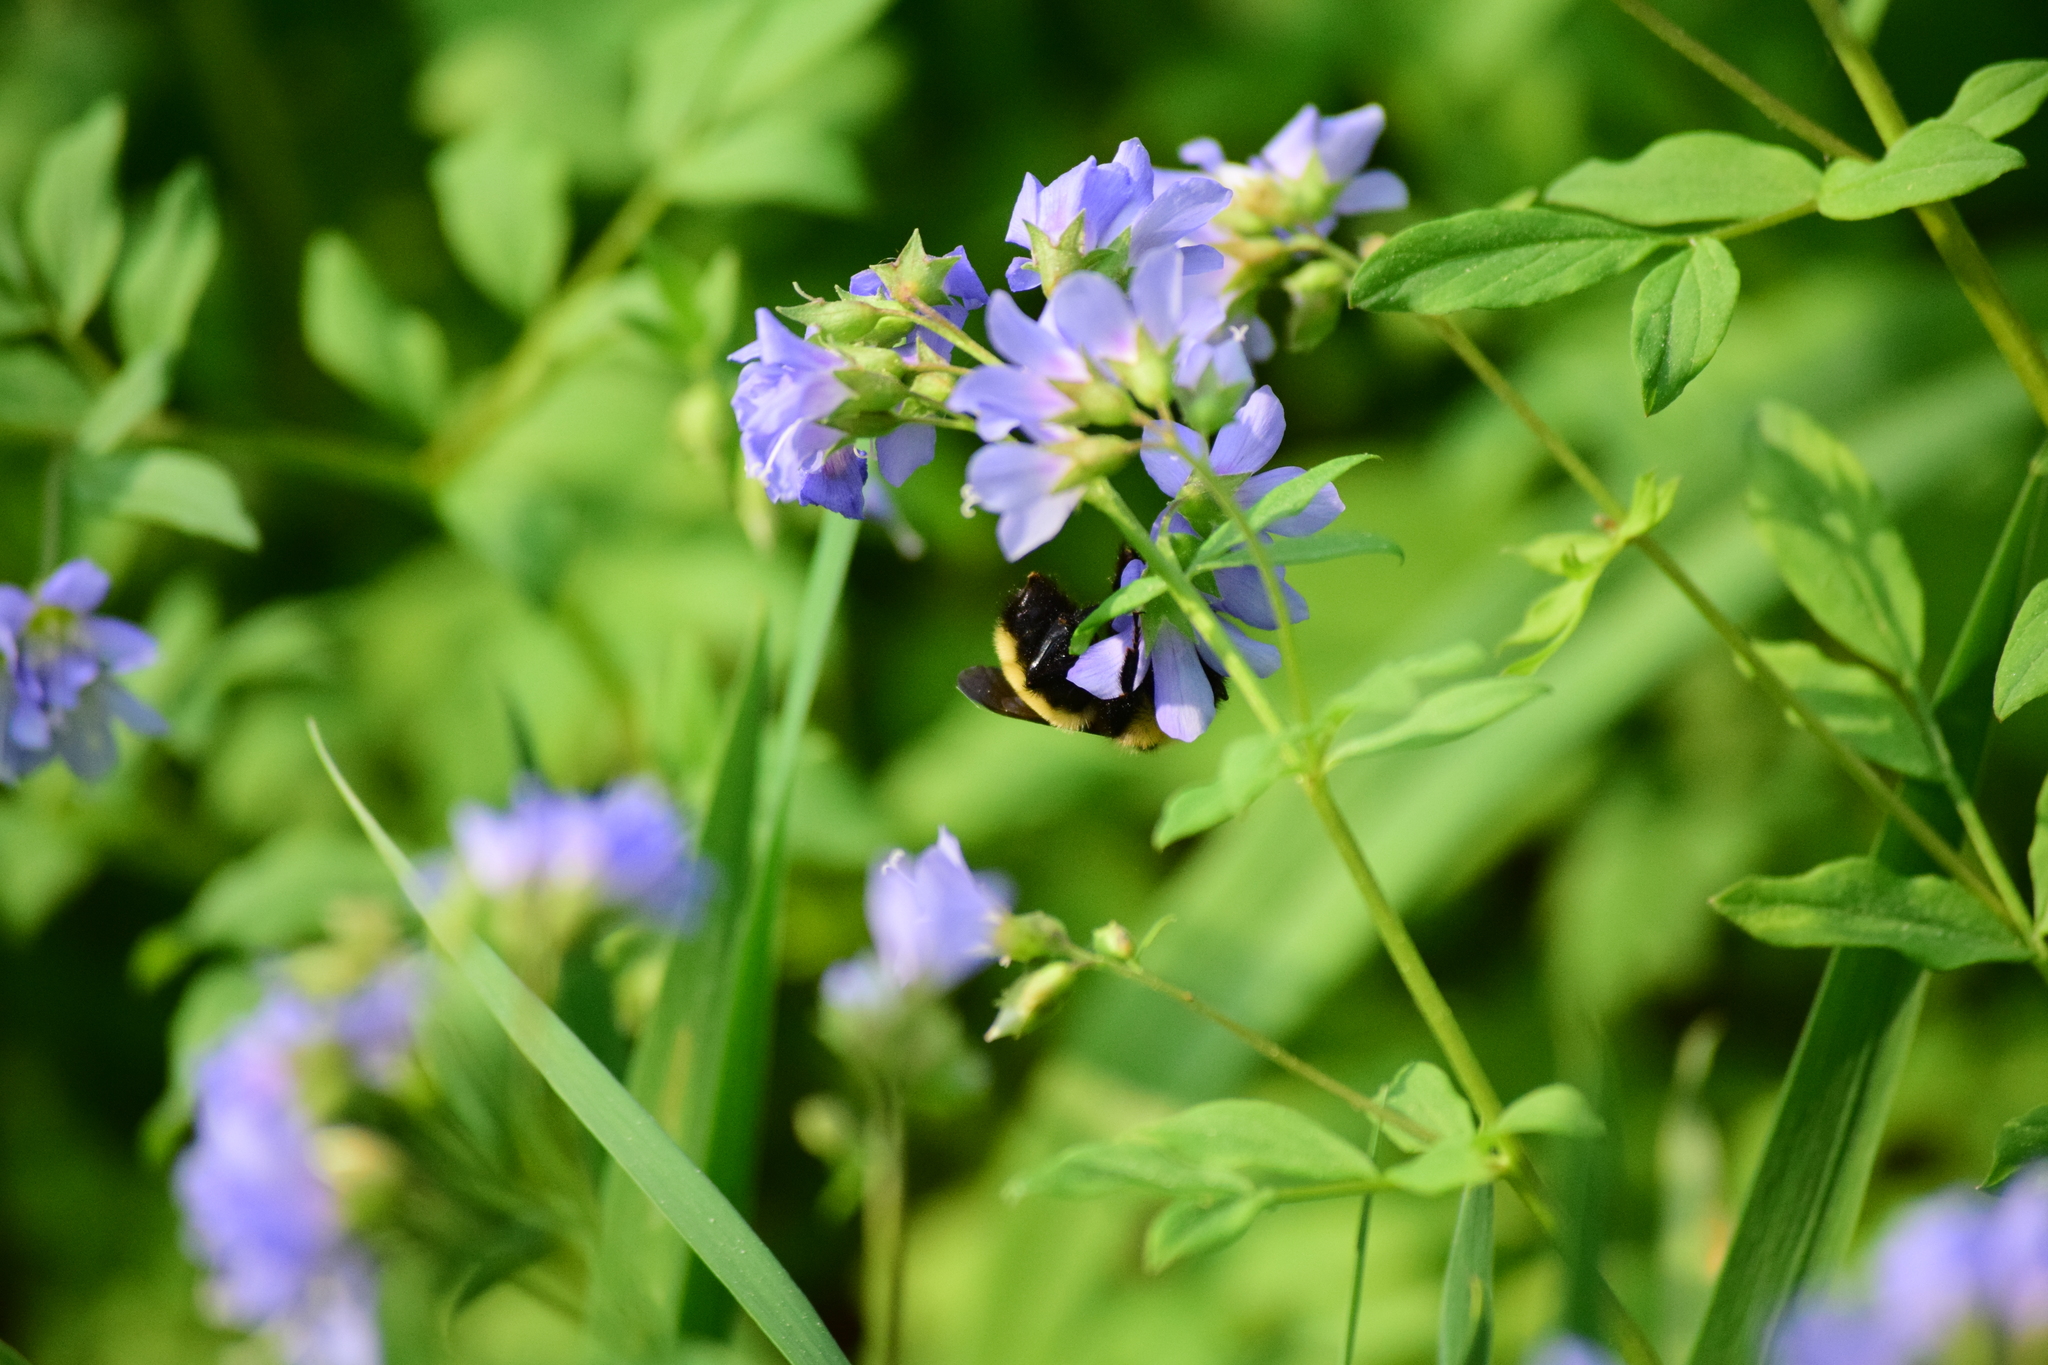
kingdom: Animalia
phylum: Arthropoda
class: Insecta
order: Hymenoptera
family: Apidae
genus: Bombus
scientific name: Bombus fervidus
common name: Yellow bumble bee
